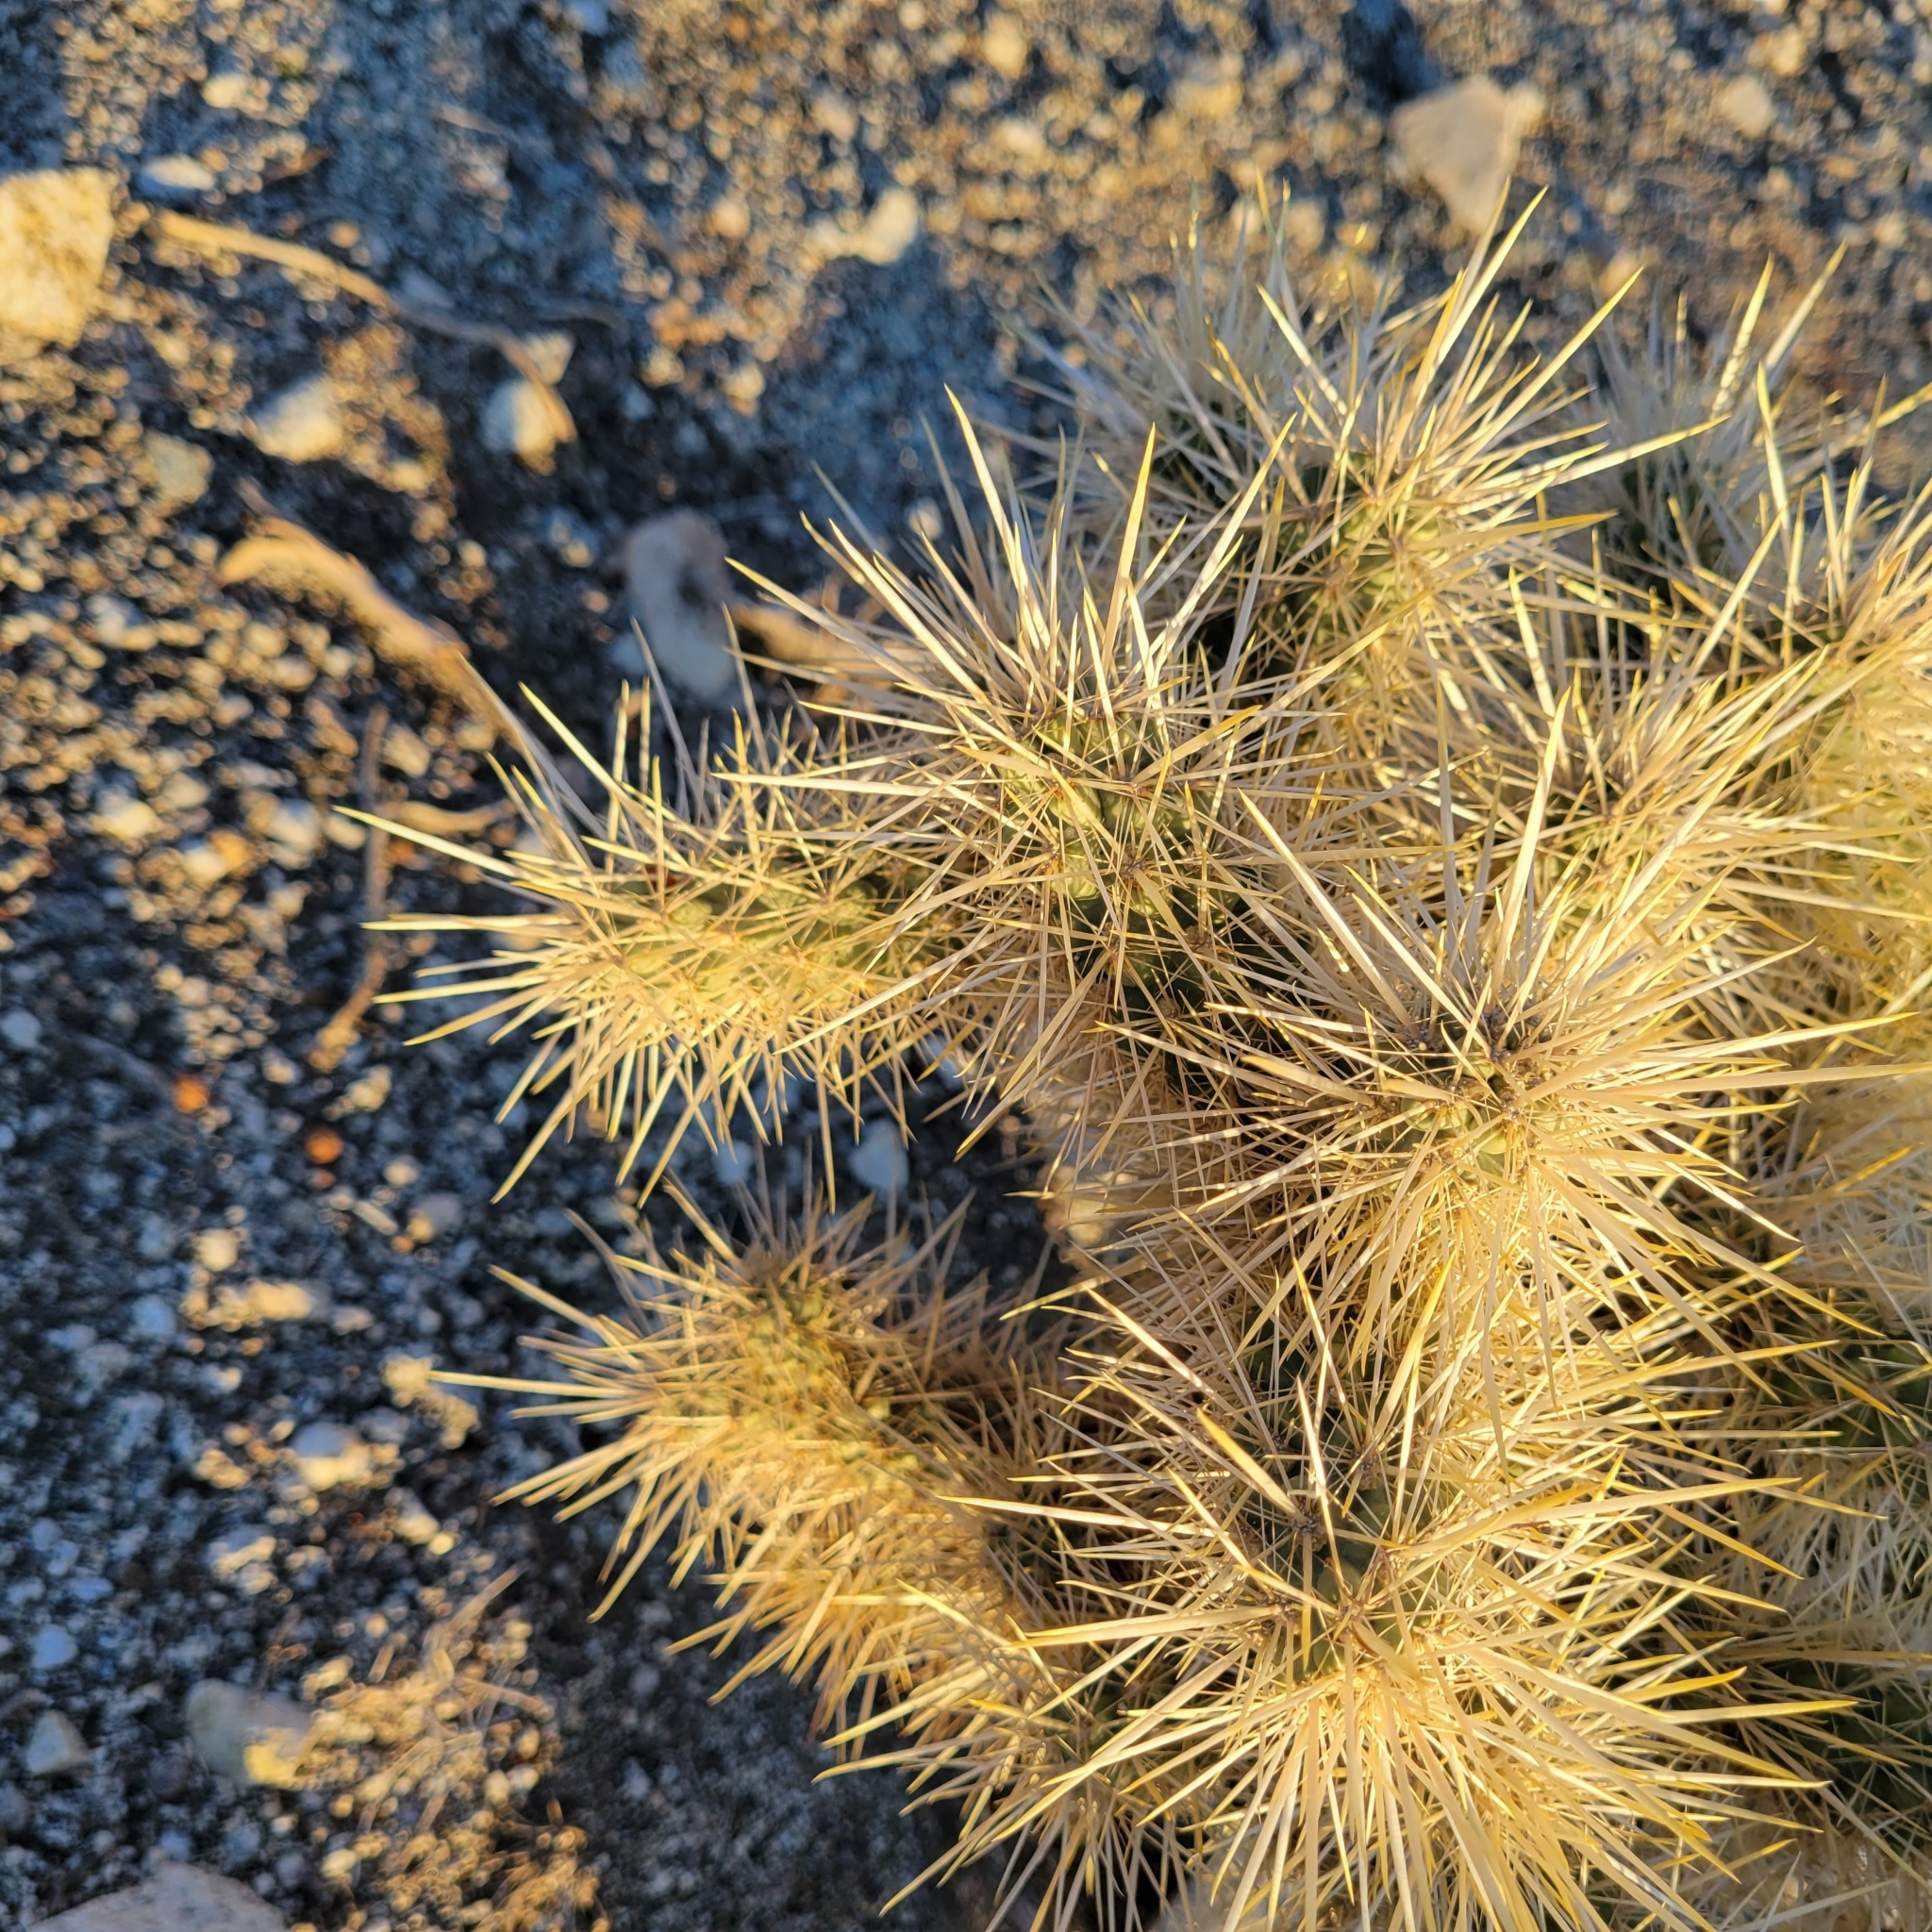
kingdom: Plantae
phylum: Tracheophyta
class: Magnoliopsida
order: Caryophyllales
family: Cactaceae
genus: Cylindropuntia
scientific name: Cylindropuntia echinocarpa
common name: Ground cholla
